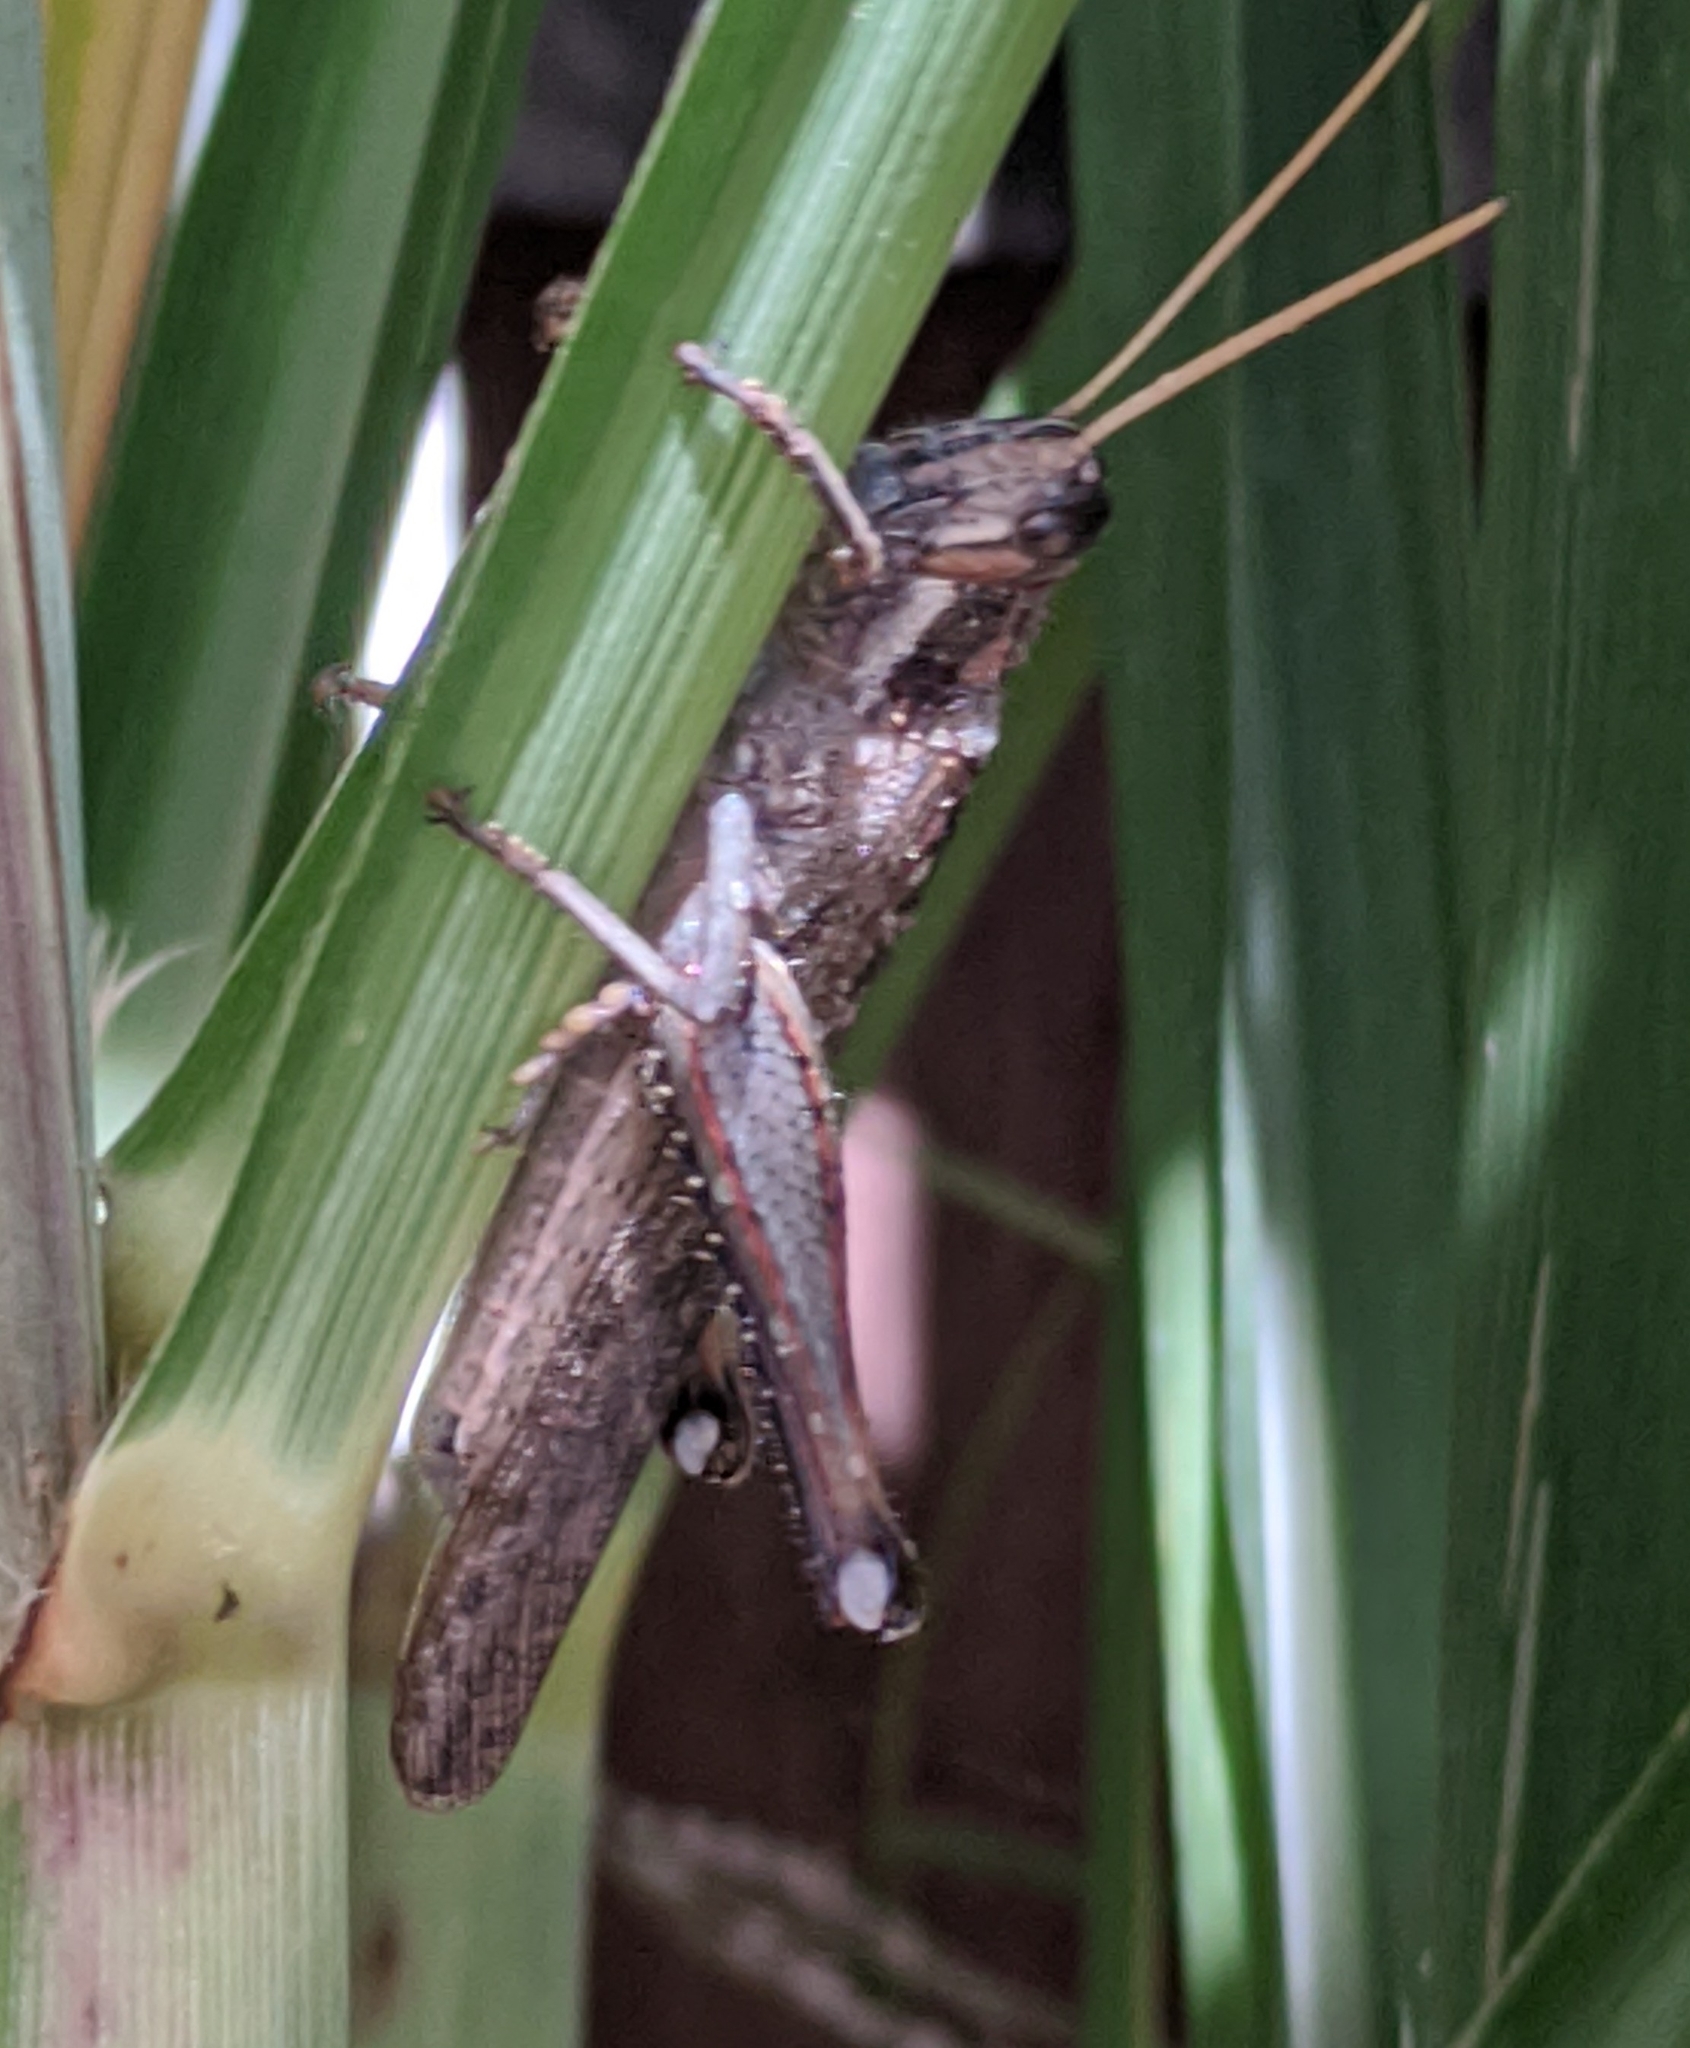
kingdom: Animalia
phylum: Arthropoda
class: Insecta
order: Orthoptera
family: Acrididae
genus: Schistocerca
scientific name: Schistocerca nitens
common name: Vagrant grasshopper
